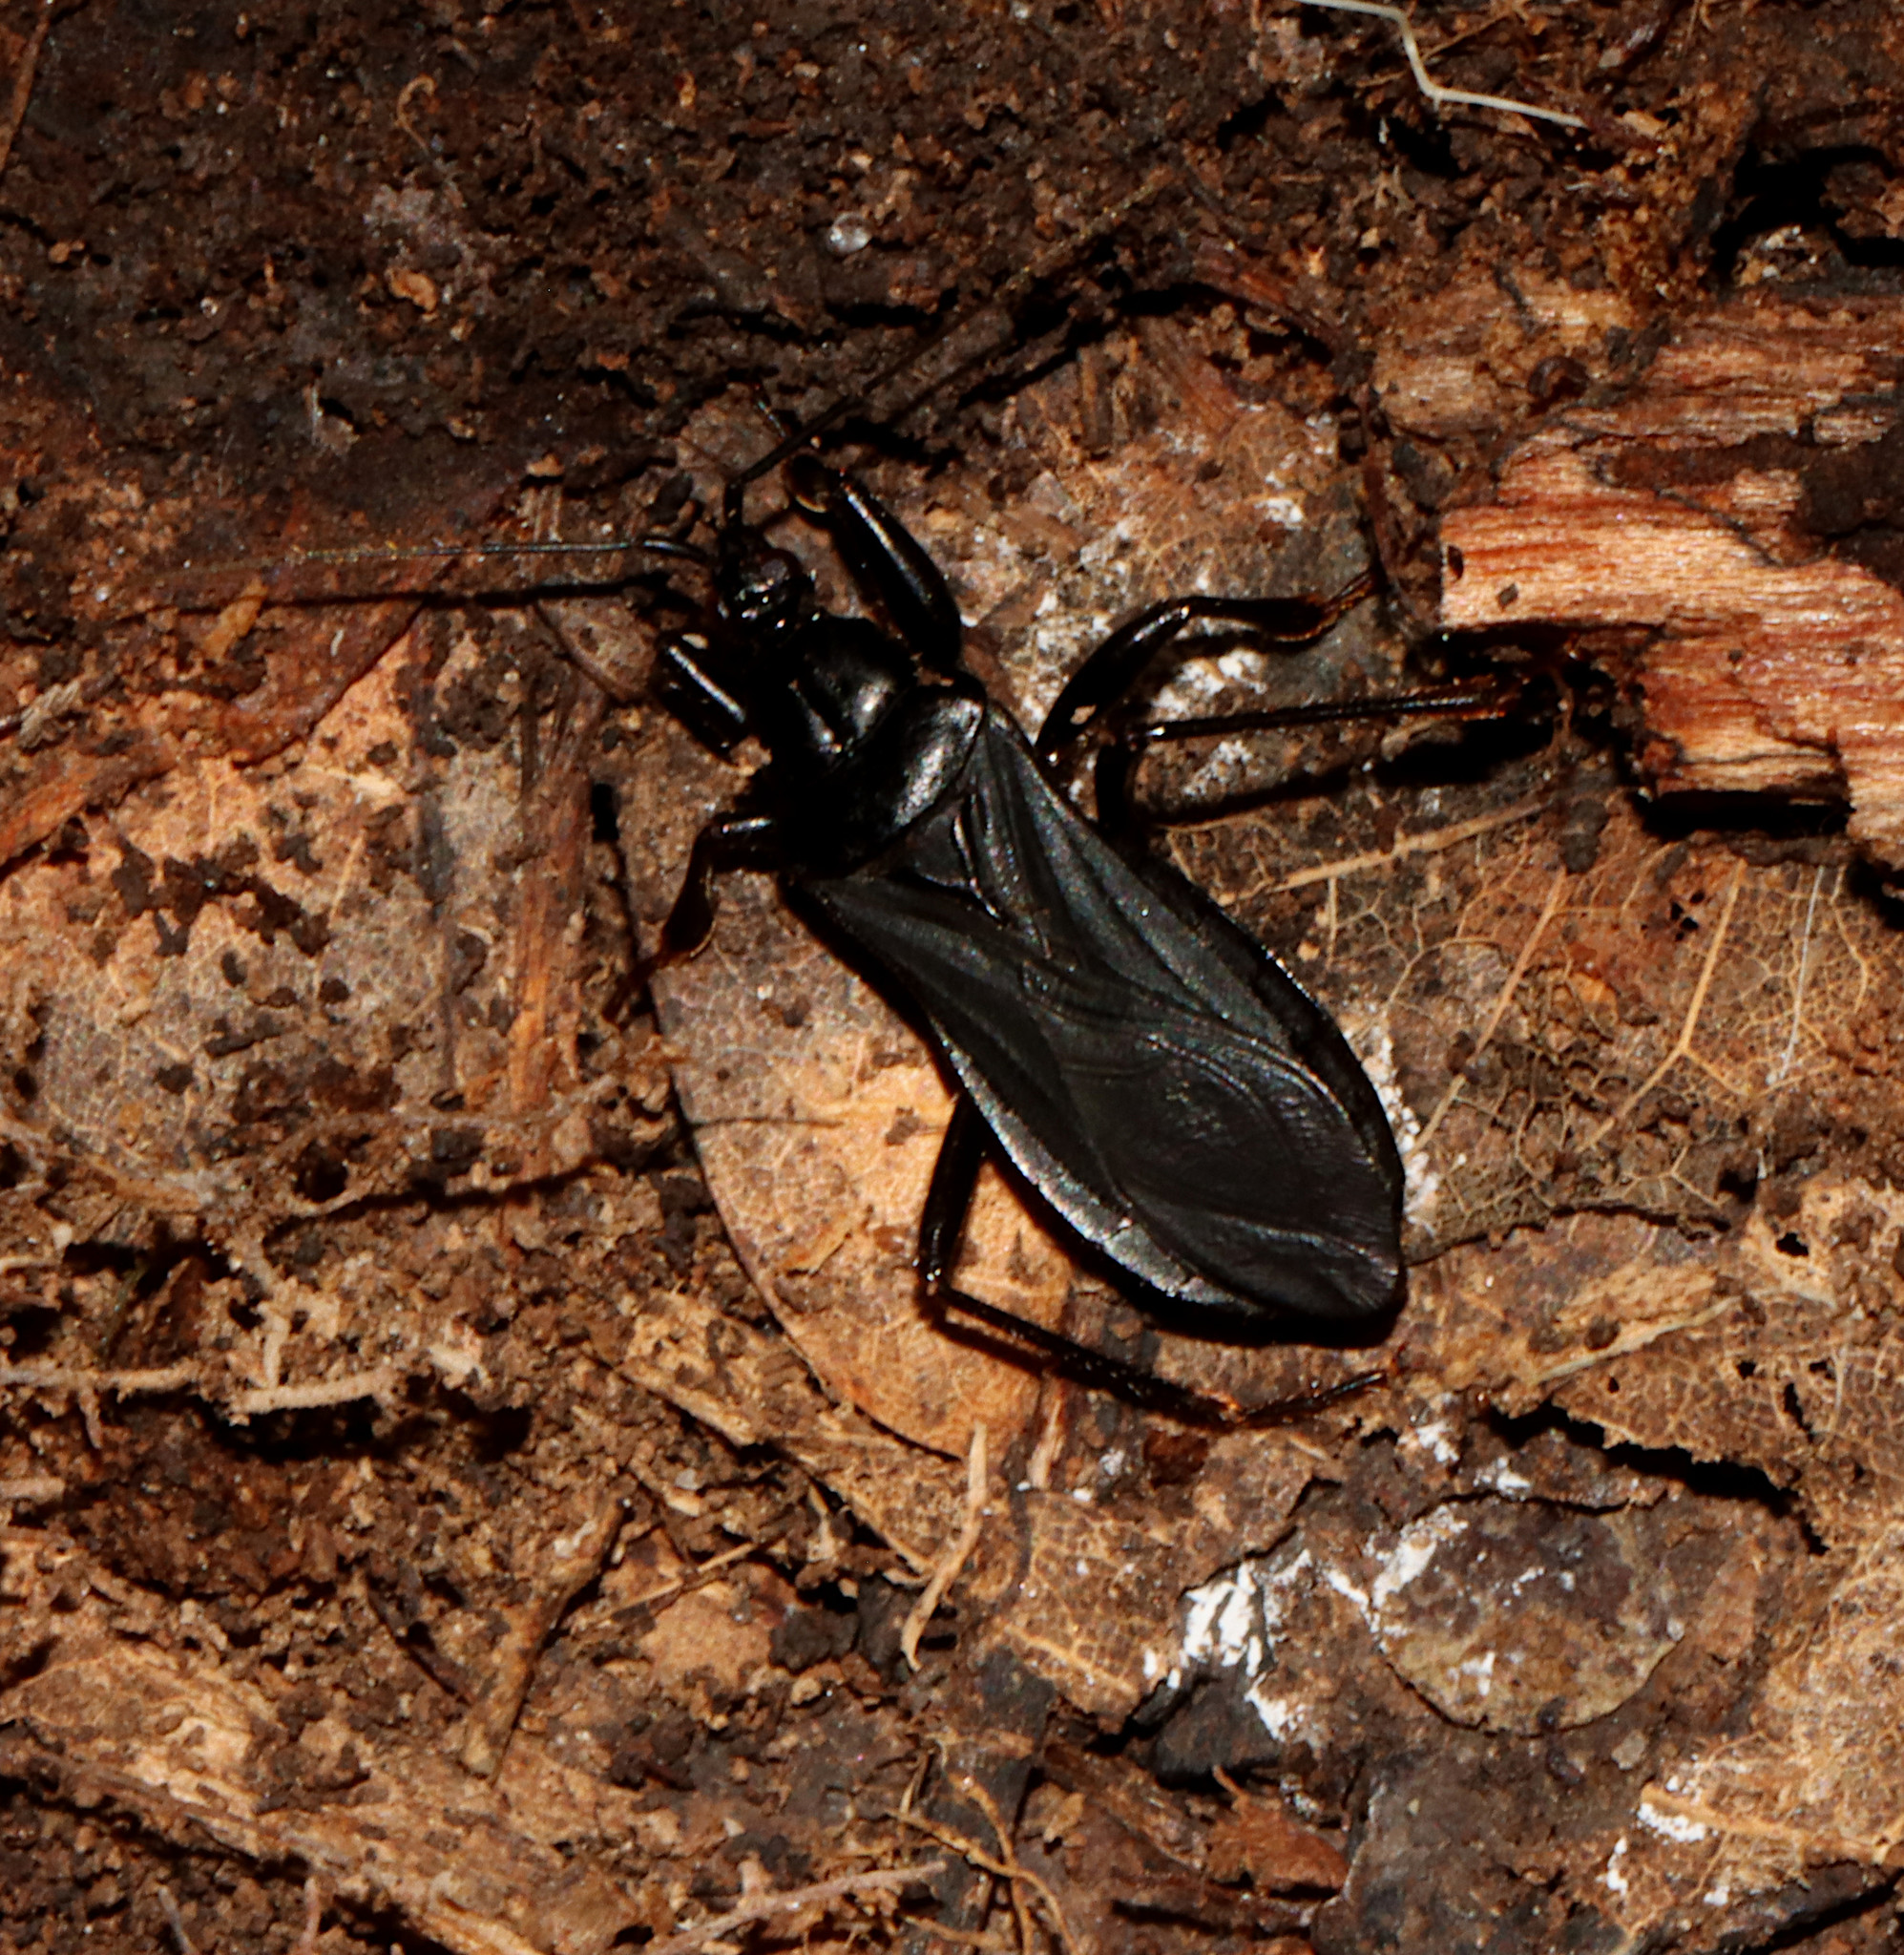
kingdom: Animalia
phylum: Arthropoda
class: Insecta
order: Hemiptera
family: Reduviidae
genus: Melanolestes
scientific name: Melanolestes picipes
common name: Assassin bug
